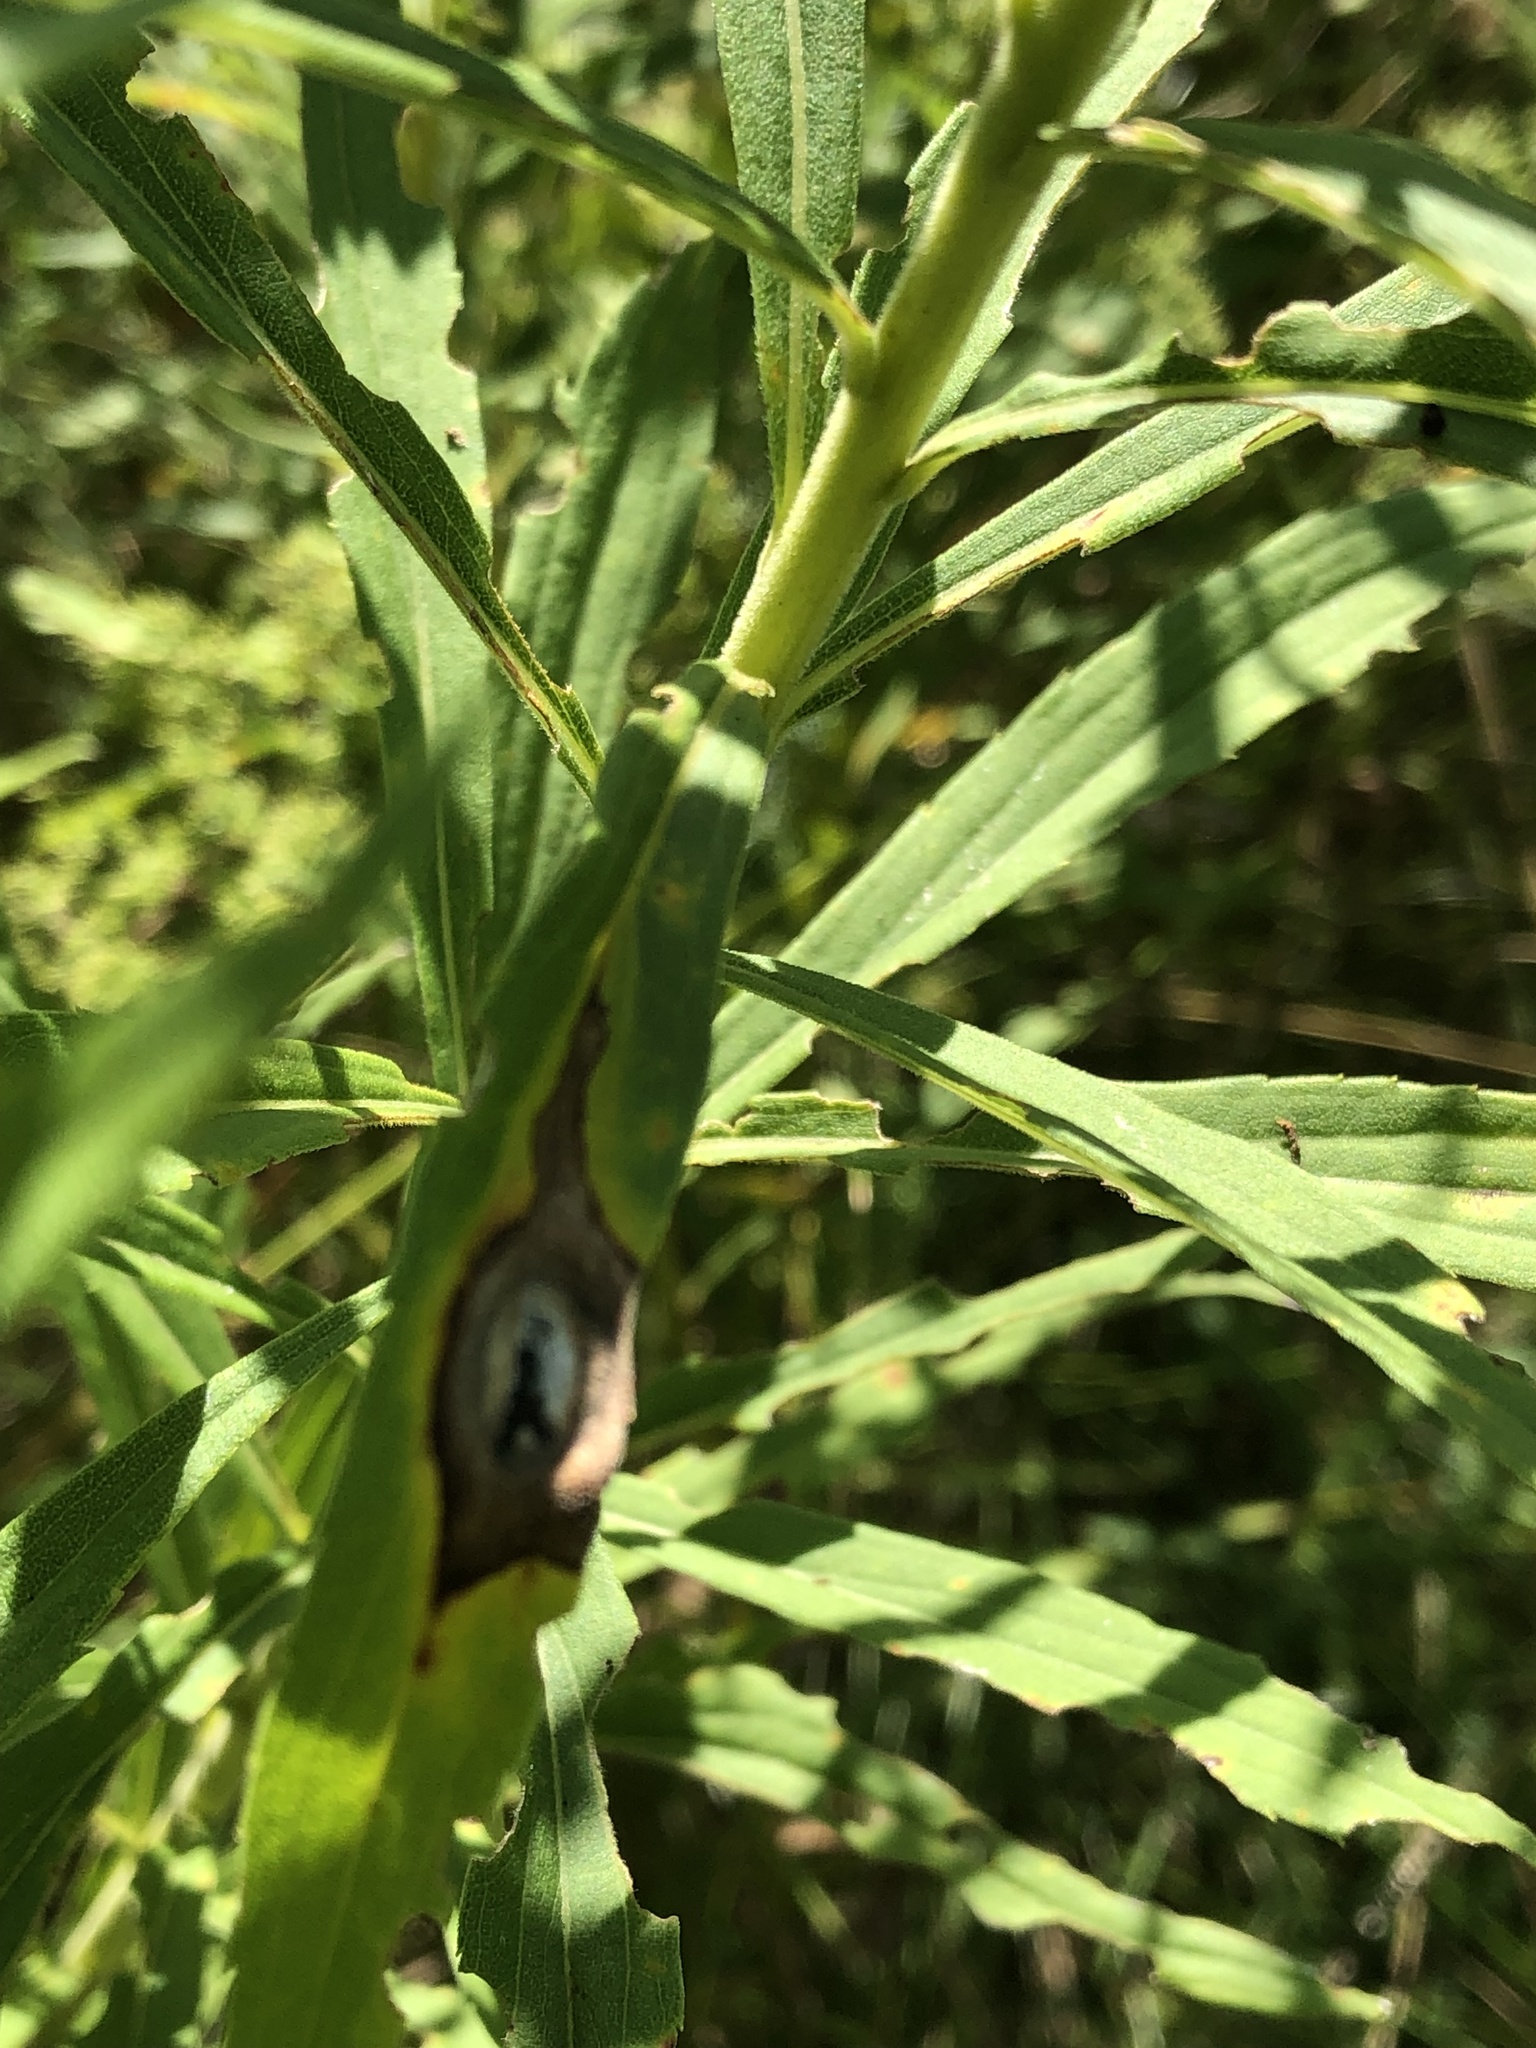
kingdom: Animalia
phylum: Arthropoda
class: Insecta
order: Diptera
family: Cecidomyiidae
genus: Asteromyia
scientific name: Asteromyia carbonifera
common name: Carbonifera goldenrod gall midge
